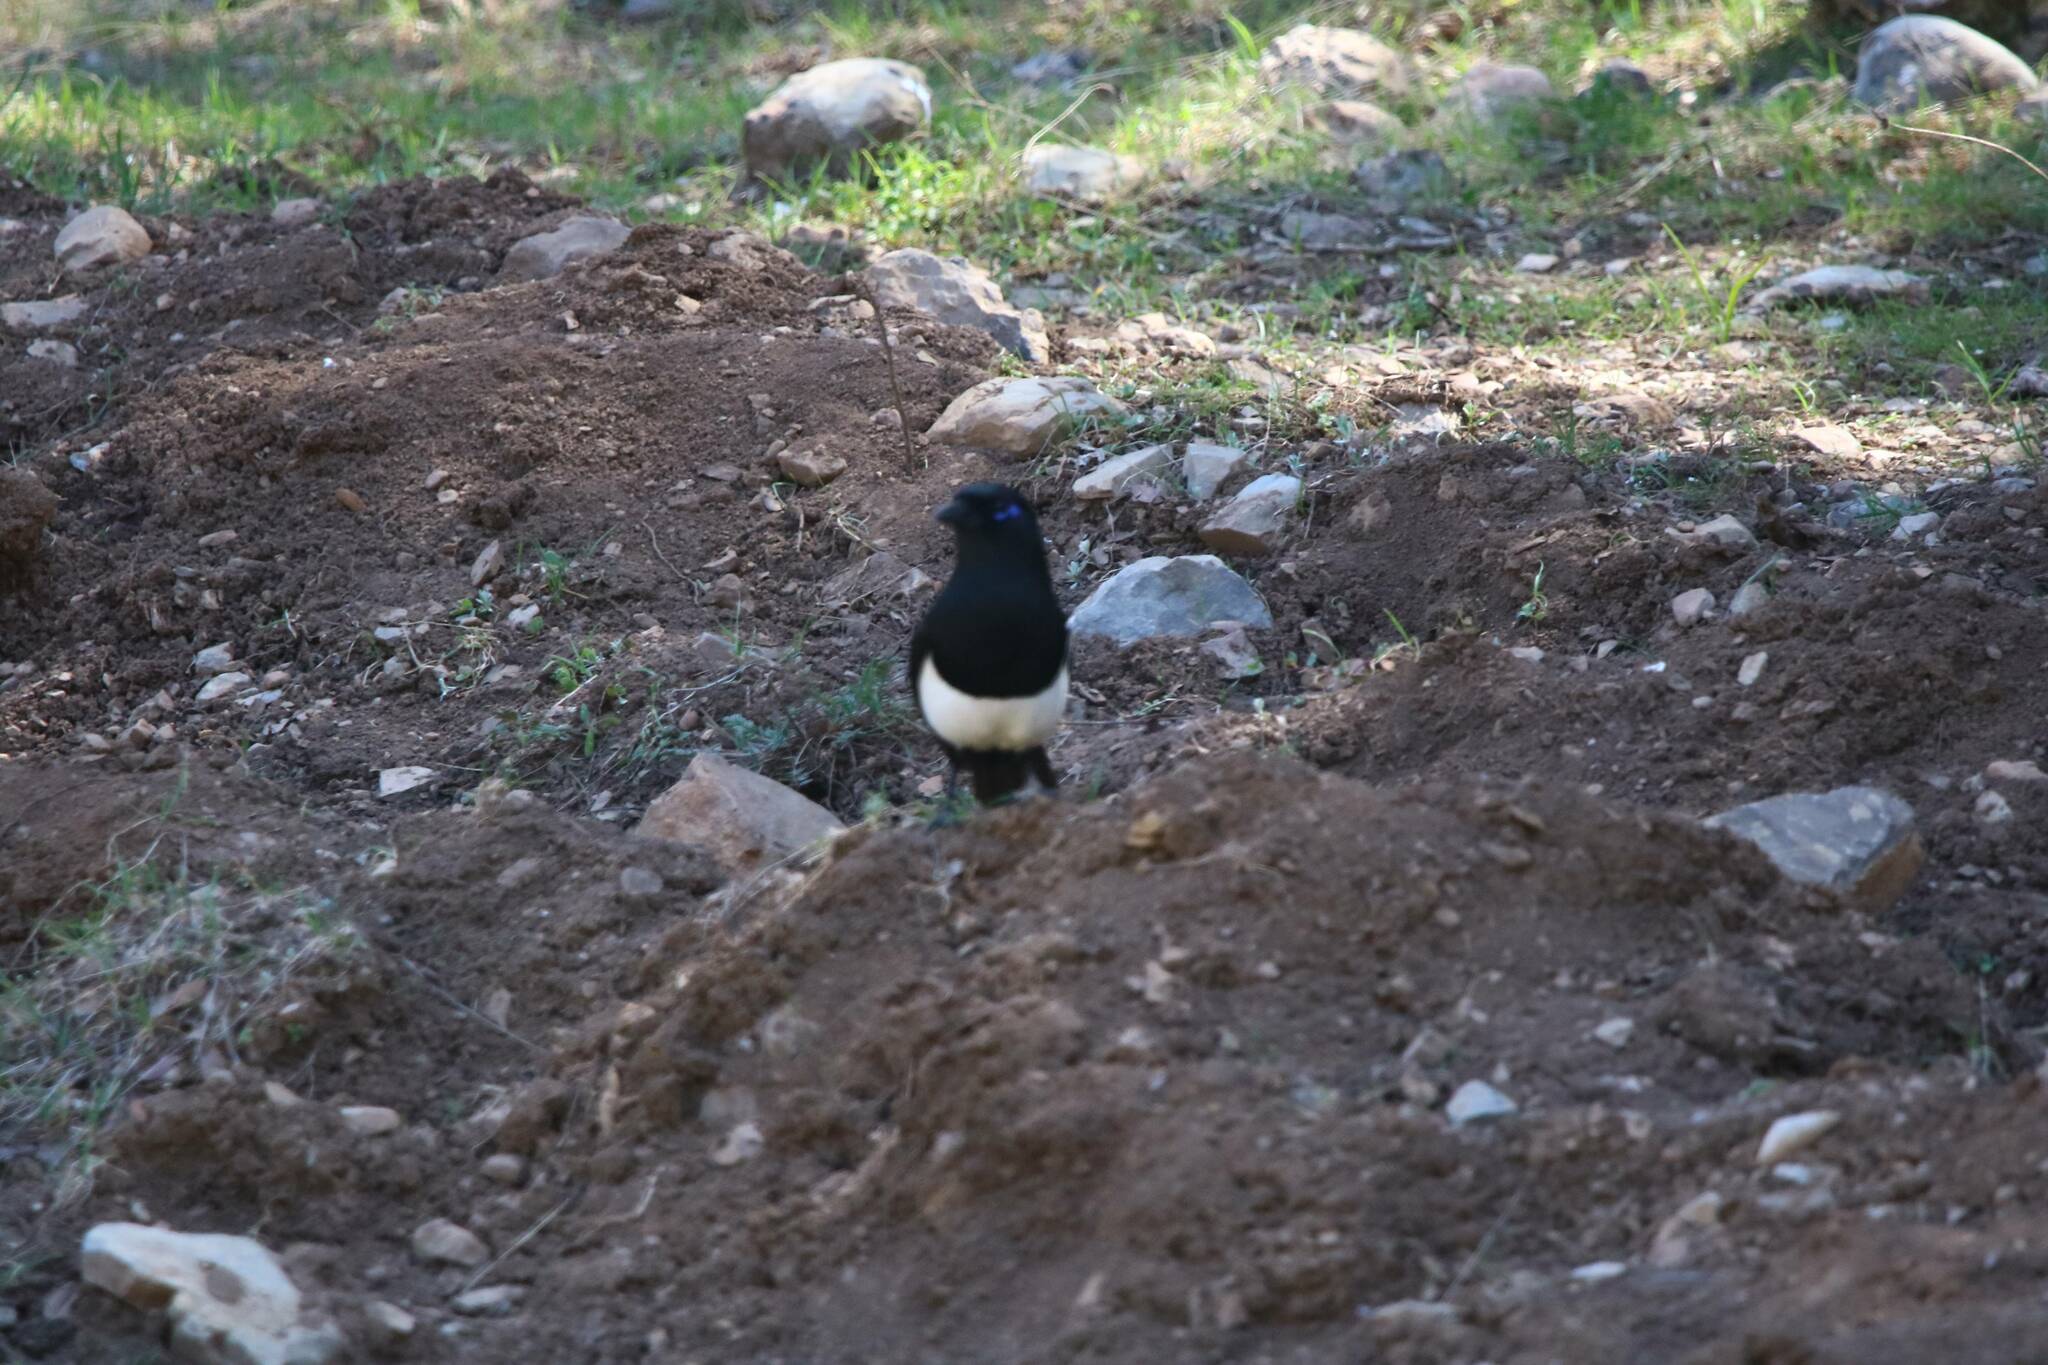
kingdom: Animalia
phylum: Chordata
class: Aves
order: Passeriformes
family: Corvidae
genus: Pica
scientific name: Pica mauritanica
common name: Maghreb magpie
